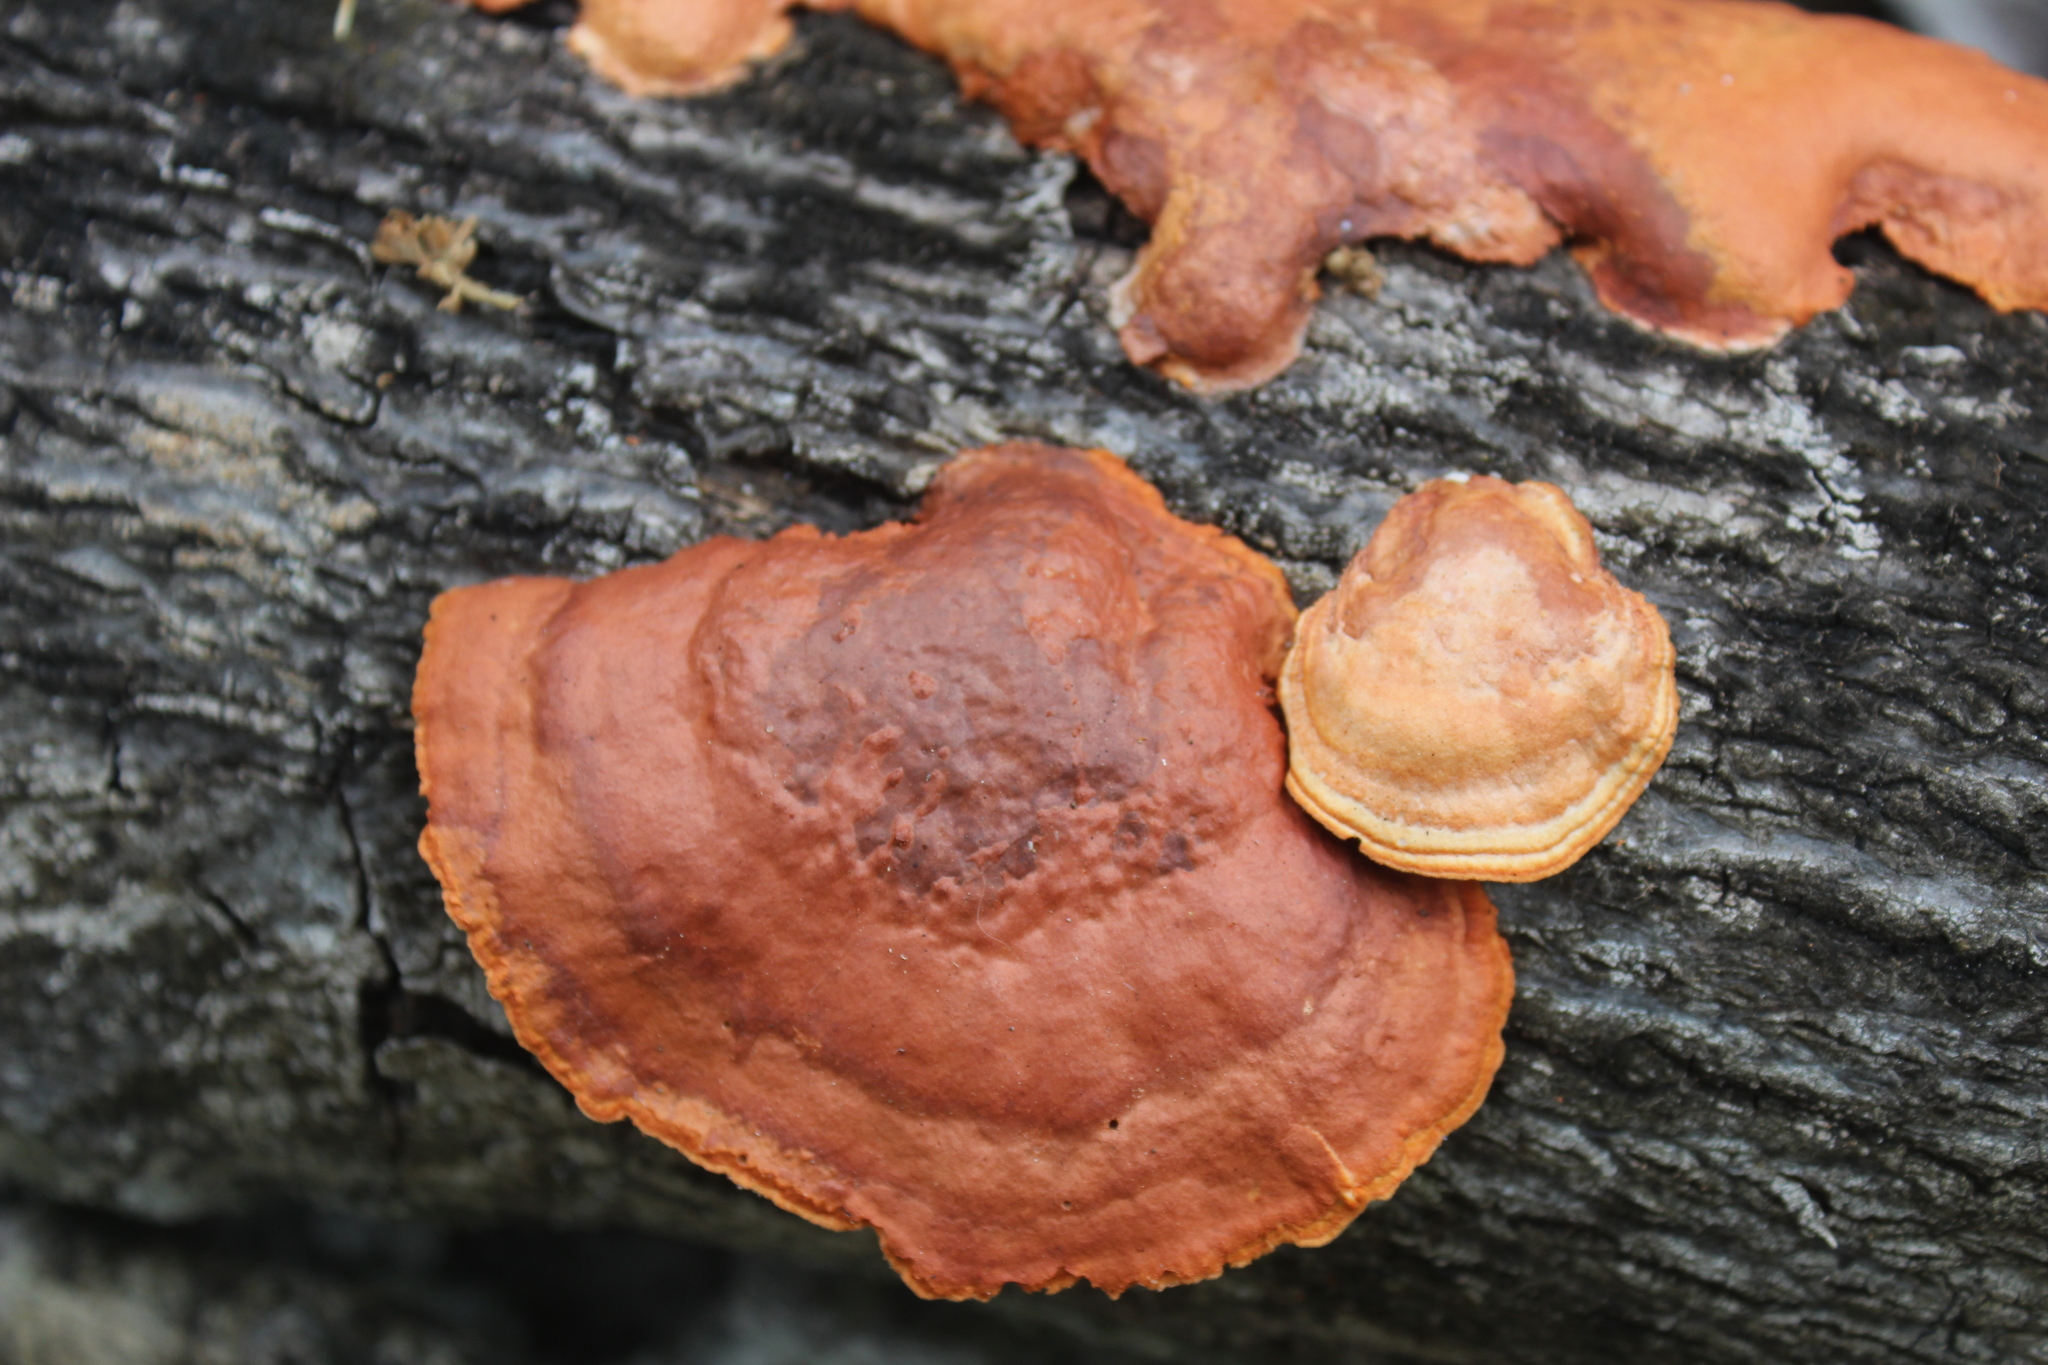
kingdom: Fungi
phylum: Basidiomycota
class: Agaricomycetes
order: Polyporales
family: Polyporaceae
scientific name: Polyporaceae
